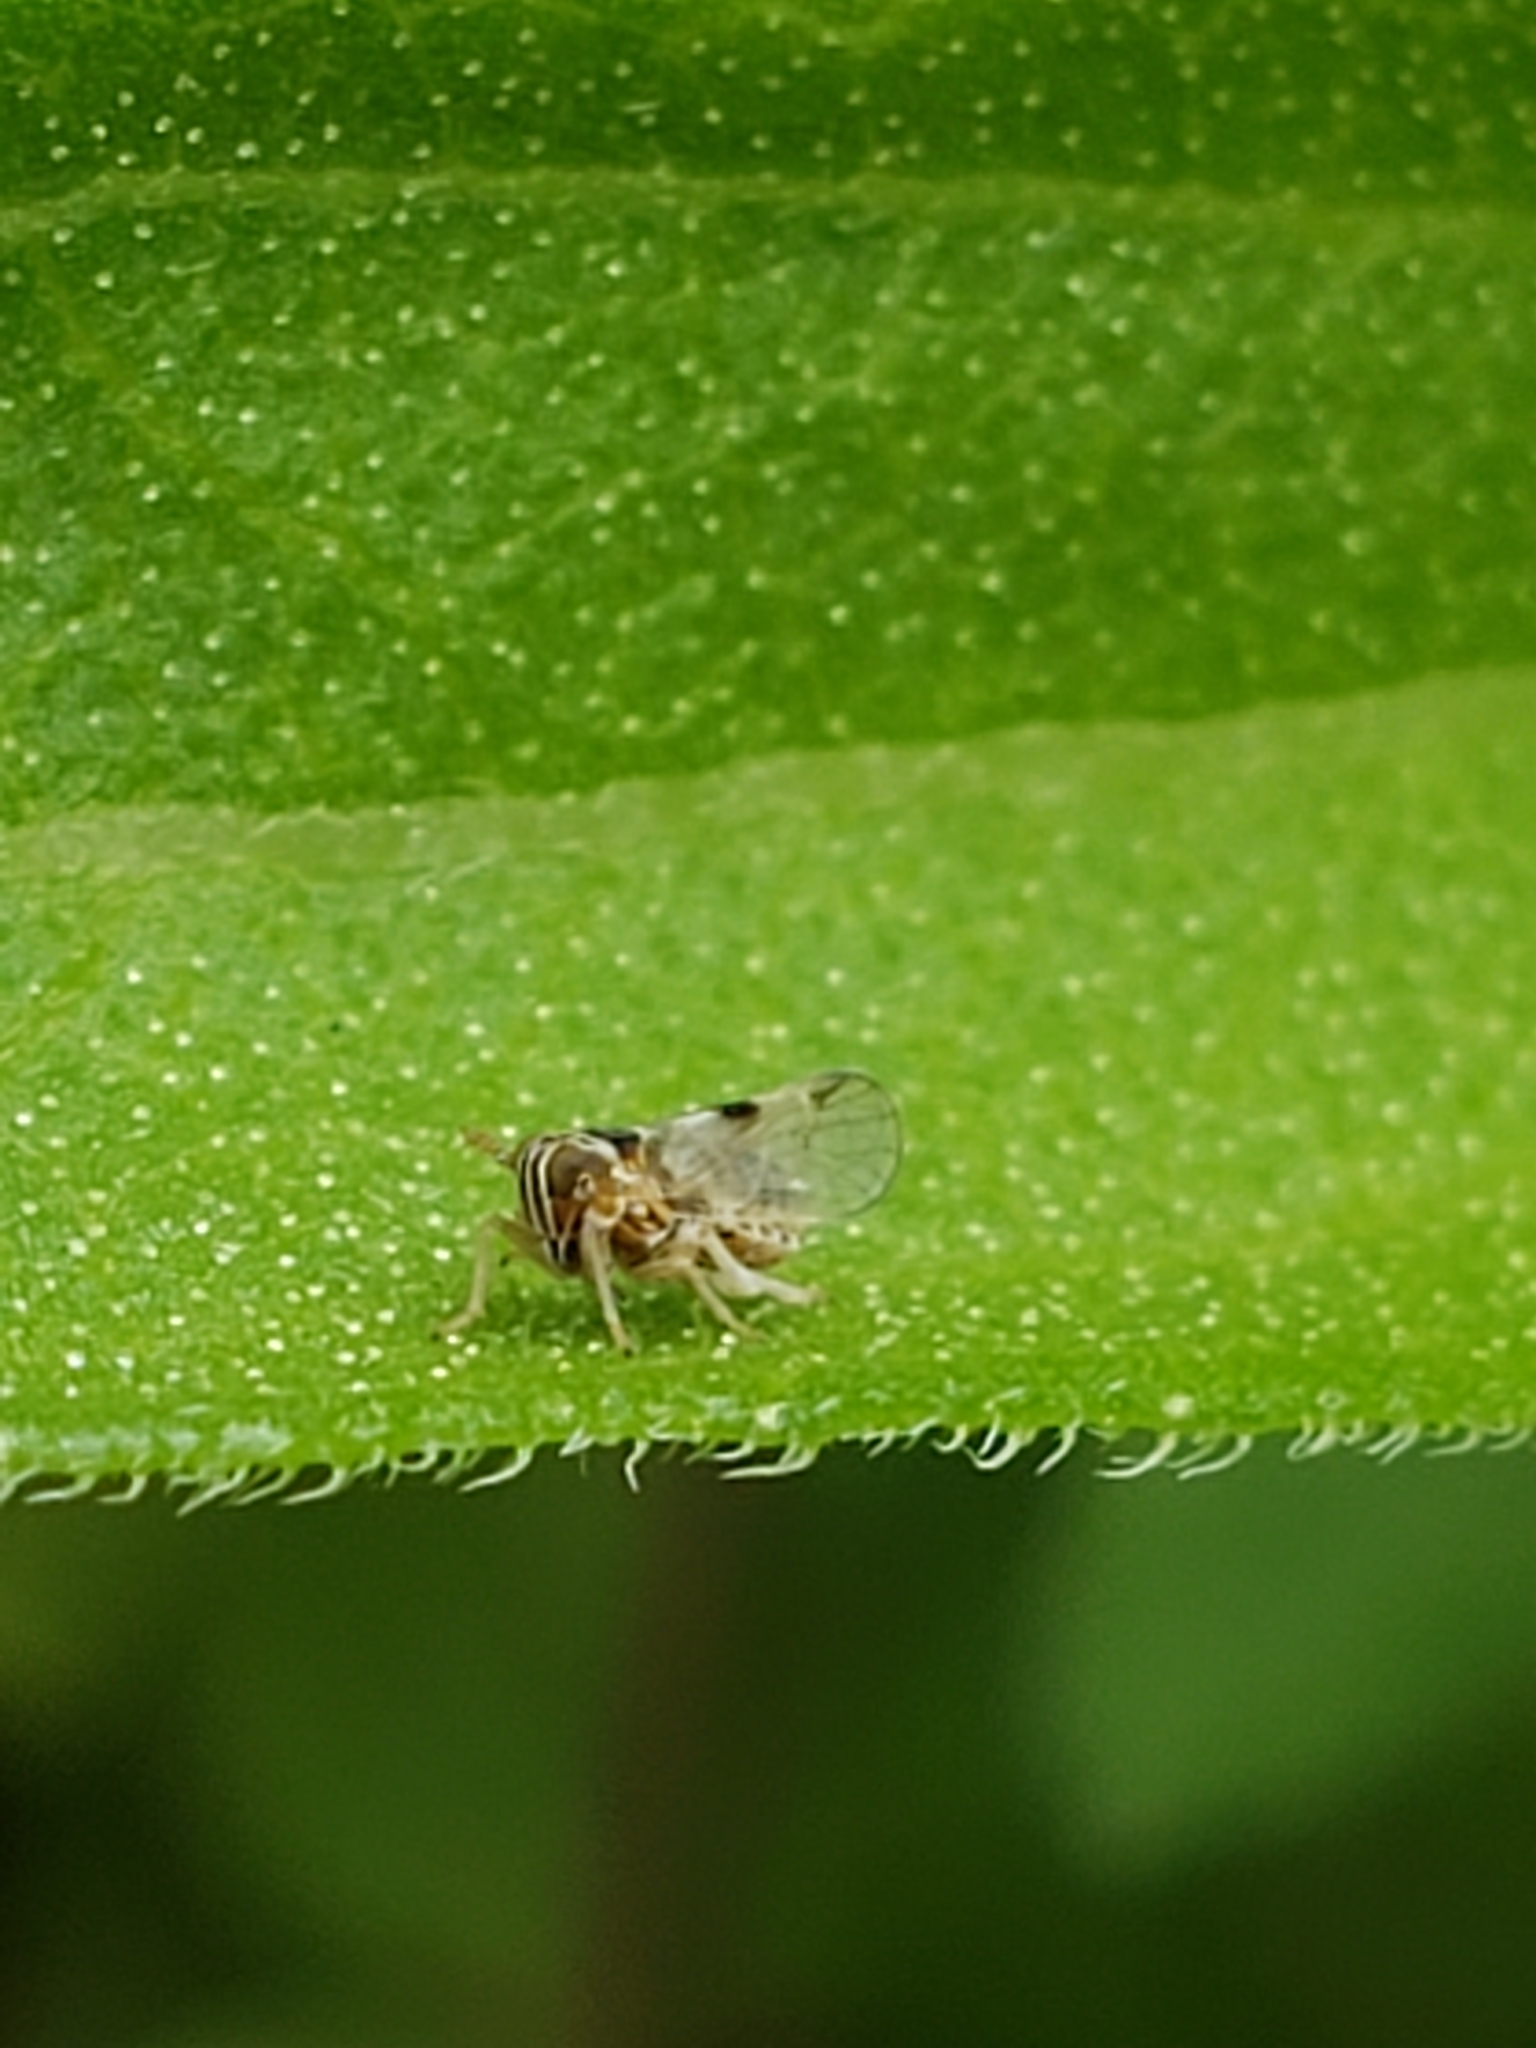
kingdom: Animalia
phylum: Arthropoda
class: Insecta
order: Hemiptera
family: Delphacidae
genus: Chionomus
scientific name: Chionomus
